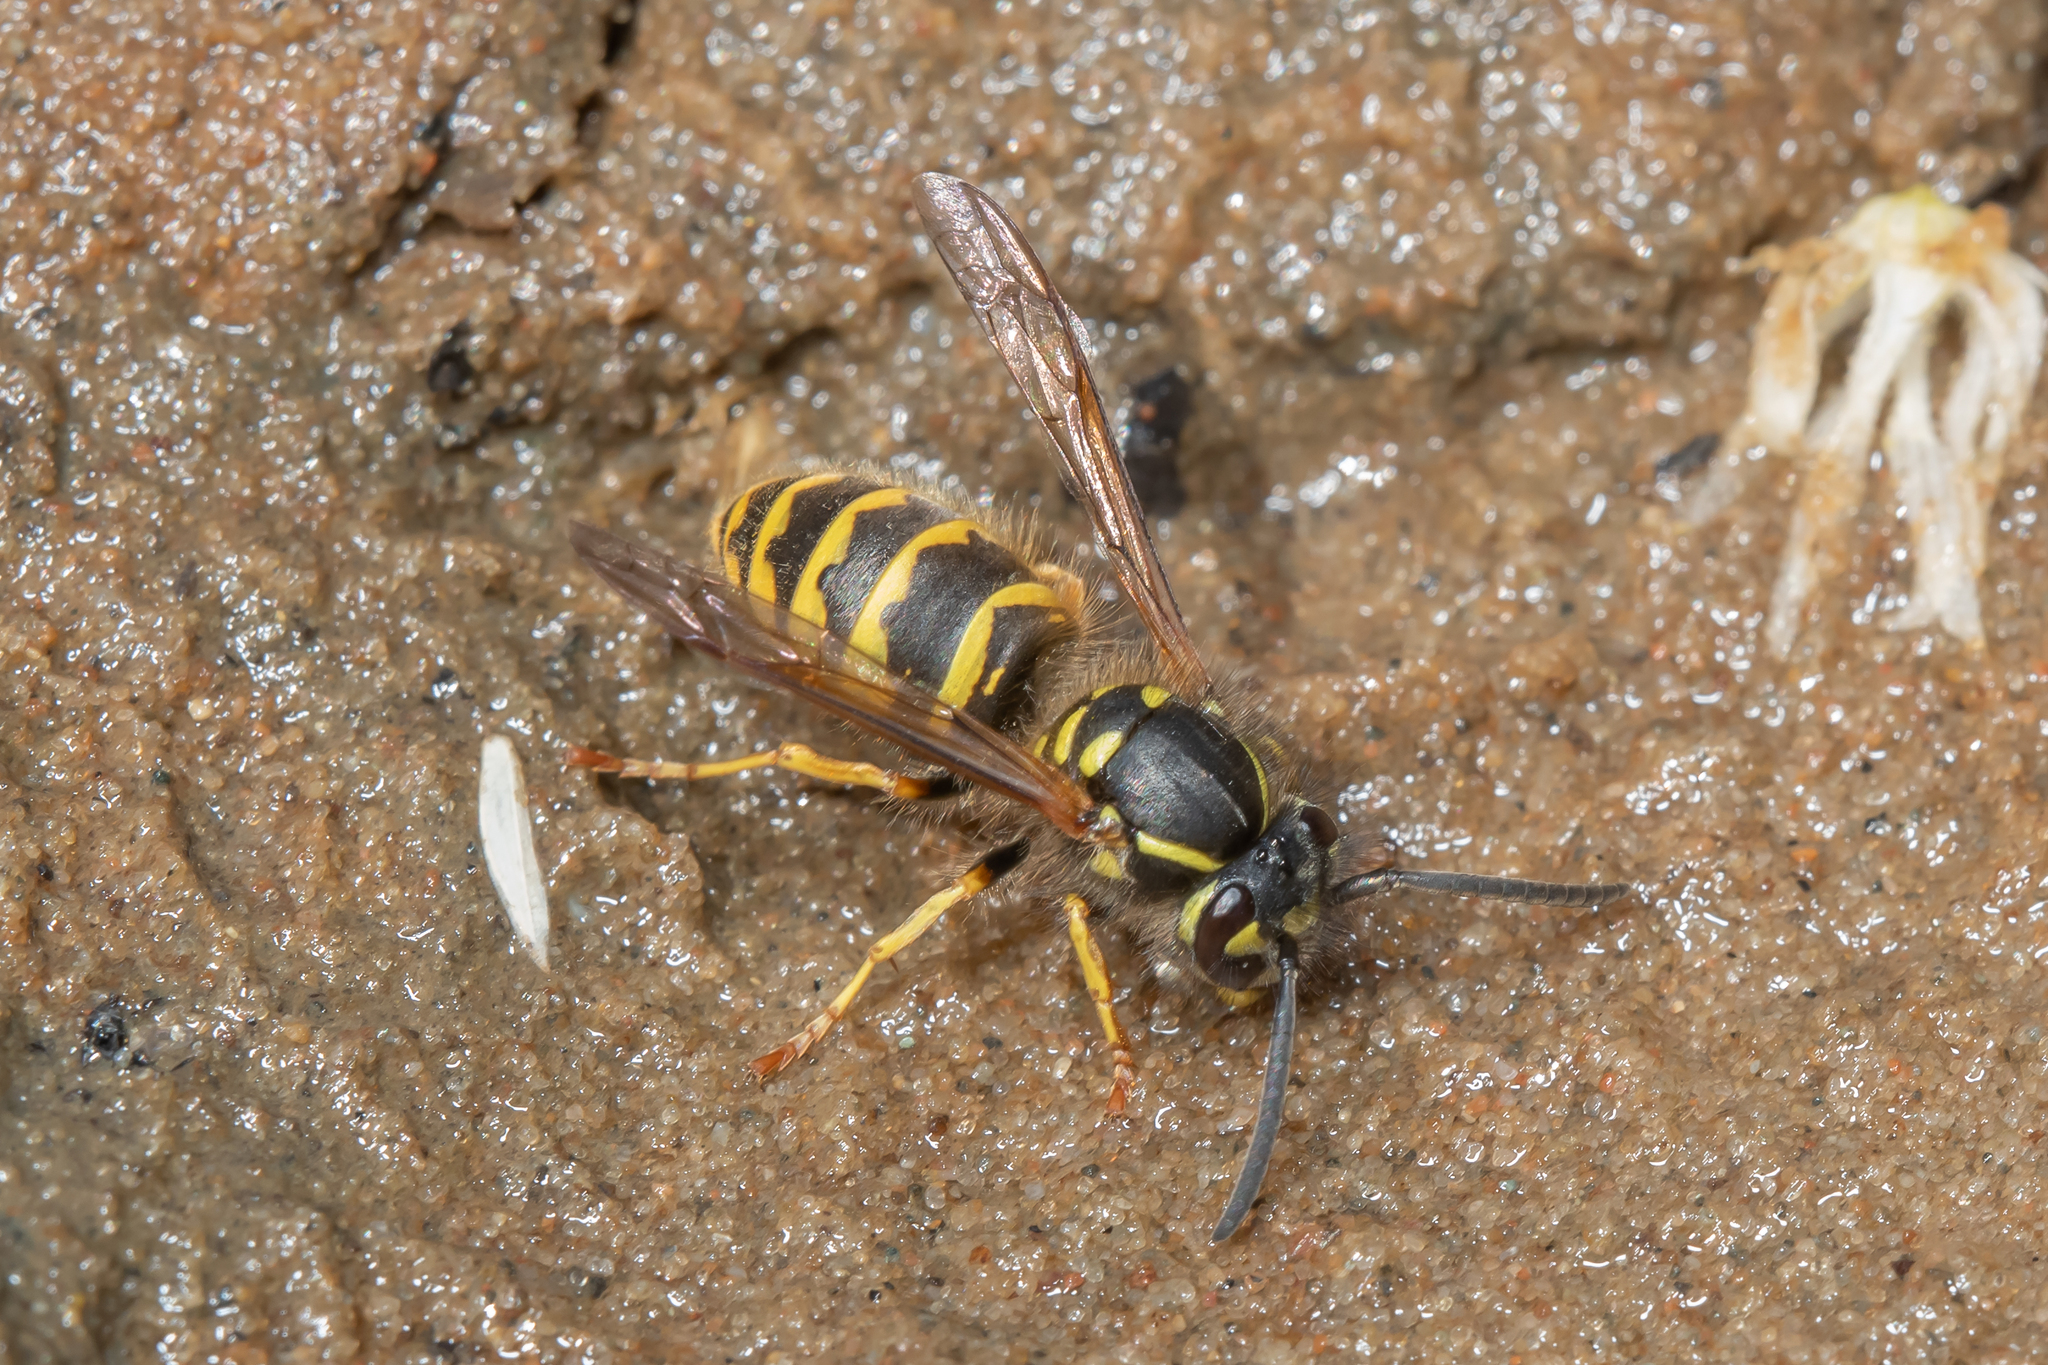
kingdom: Animalia
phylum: Arthropoda
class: Insecta
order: Hymenoptera
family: Vespidae
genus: Vespula
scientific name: Vespula vulgaris
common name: Common wasp
